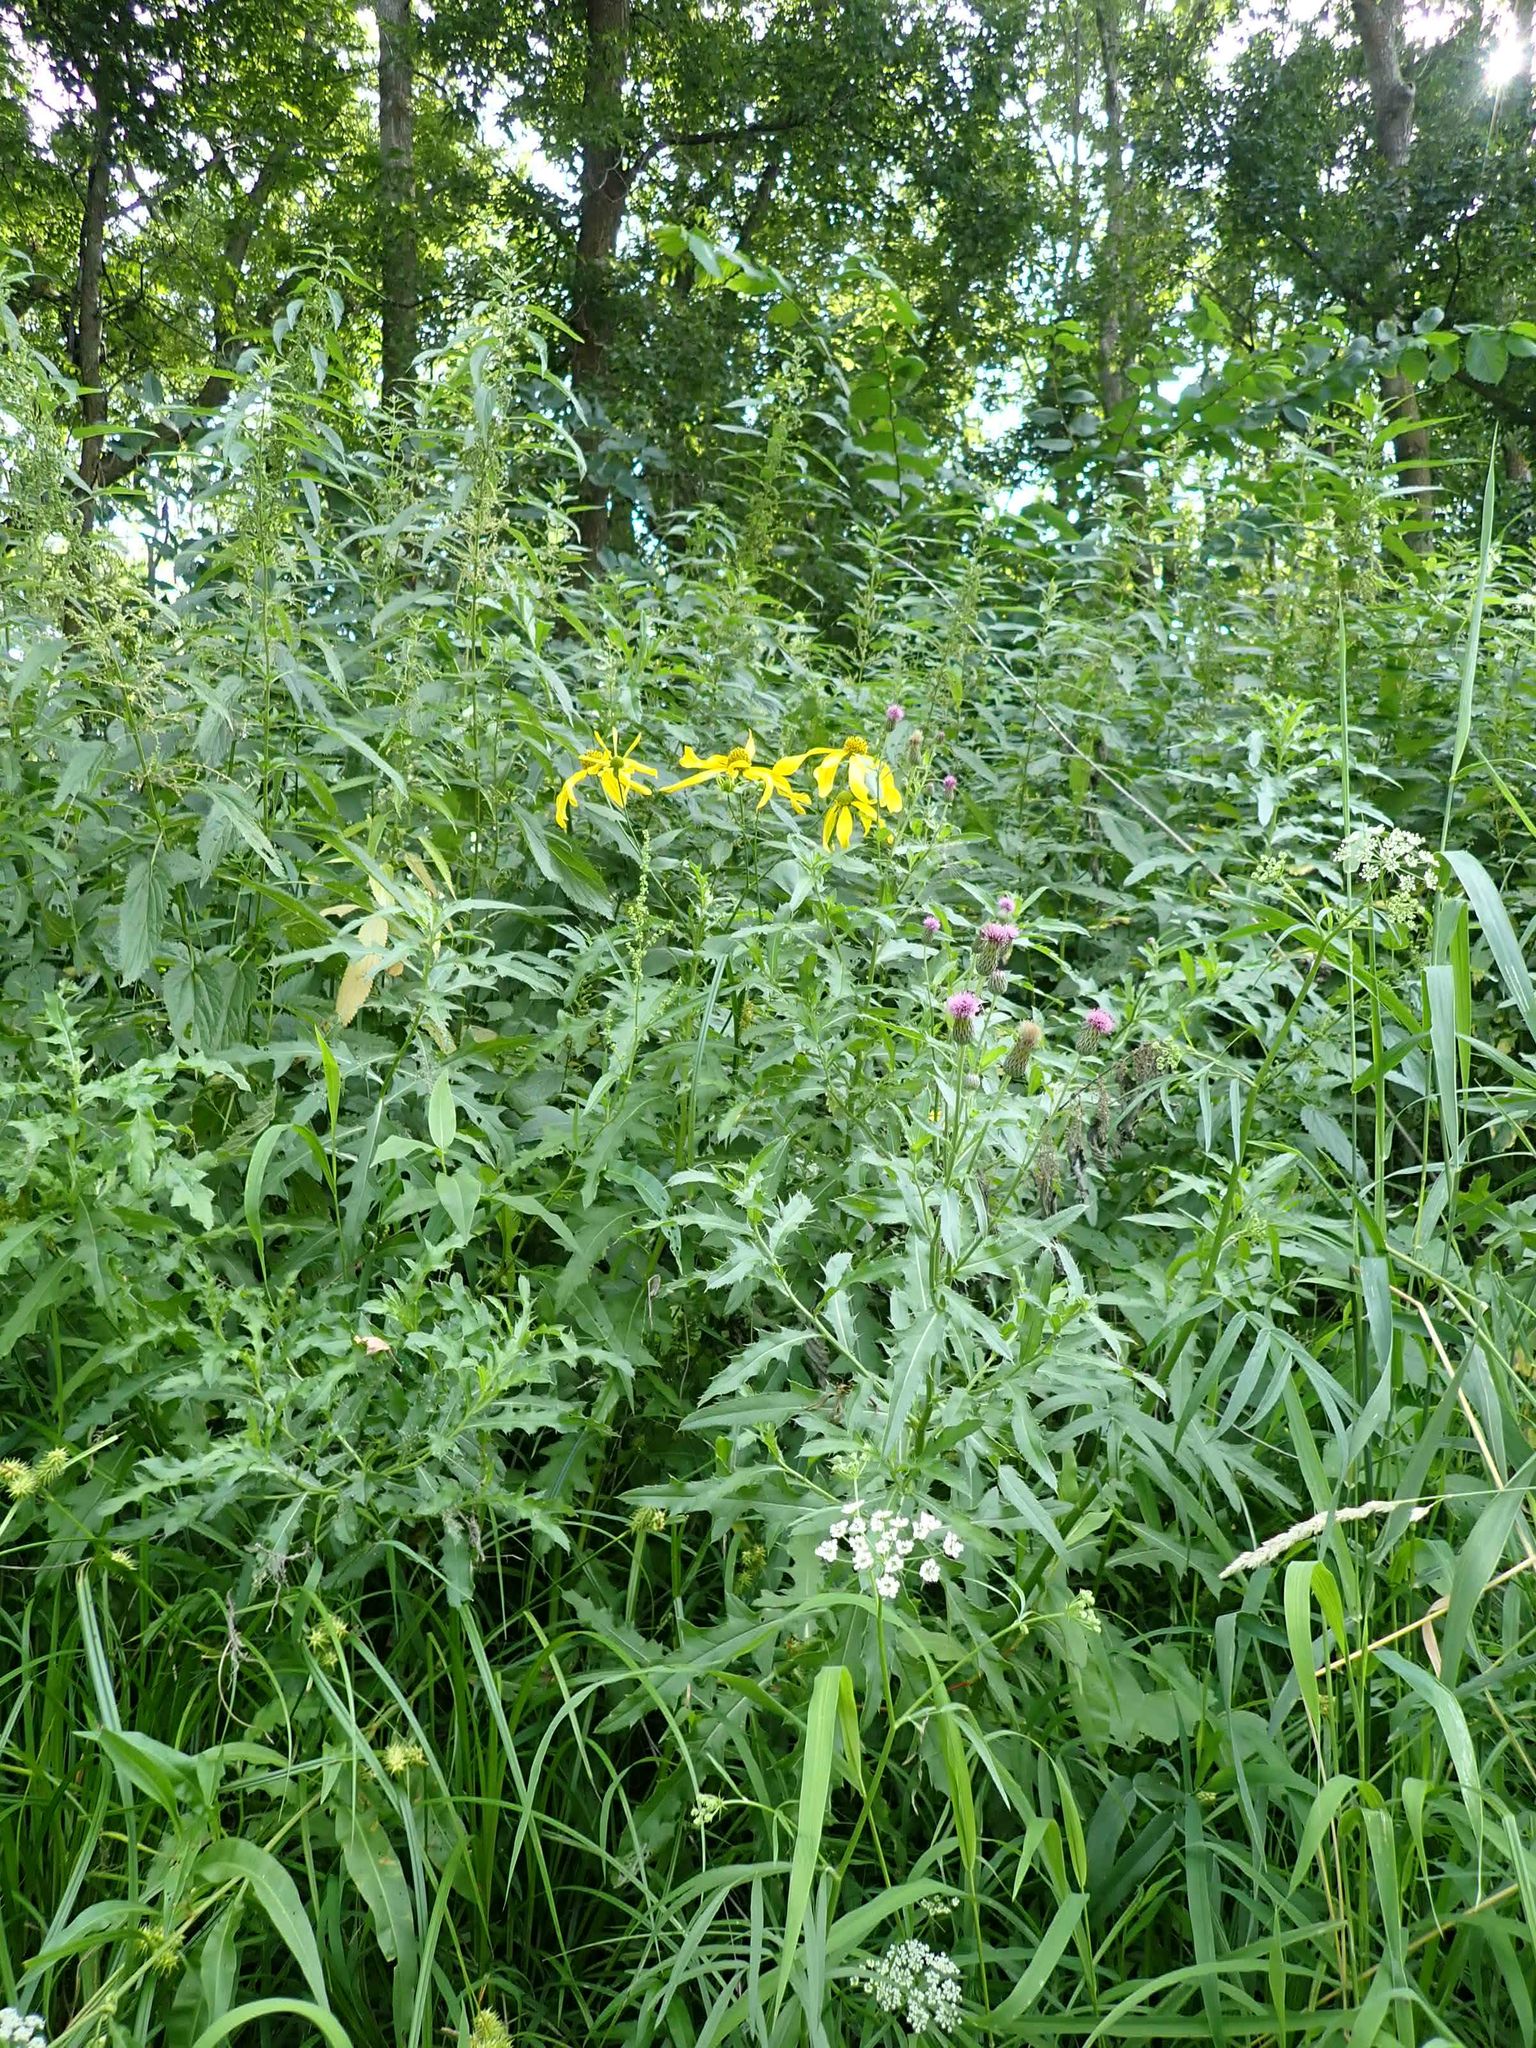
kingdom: Plantae
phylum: Tracheophyta
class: Magnoliopsida
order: Asterales
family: Asteraceae
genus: Rudbeckia
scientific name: Rudbeckia laciniata
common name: Coneflower
